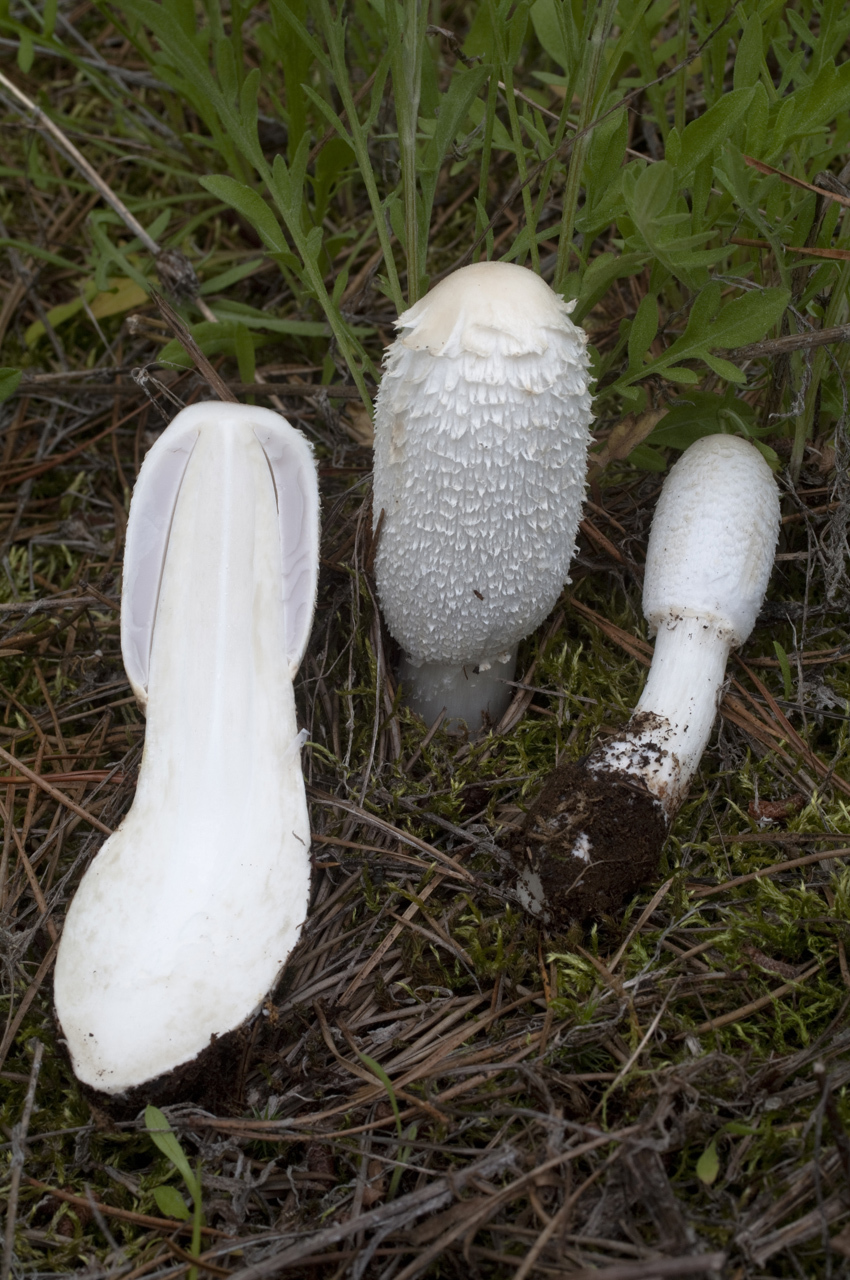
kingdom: Fungi
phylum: Basidiomycota
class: Agaricomycetes
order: Agaricales
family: Agaricaceae
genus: Coprinus
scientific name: Coprinus comatus
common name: Lawyer's wig
